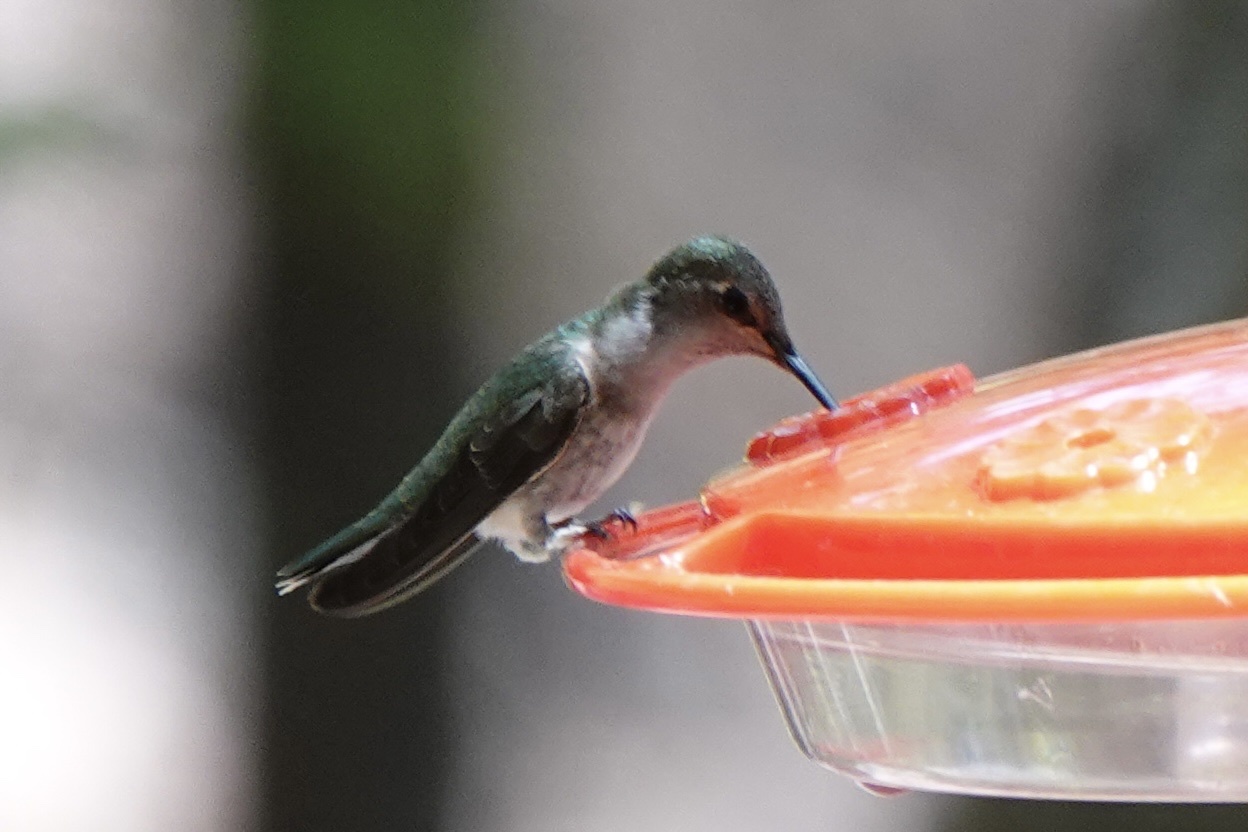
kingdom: Animalia
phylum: Chordata
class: Aves
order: Apodiformes
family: Trochilidae
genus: Archilochus
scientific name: Archilochus alexandri
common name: Black-chinned hummingbird
